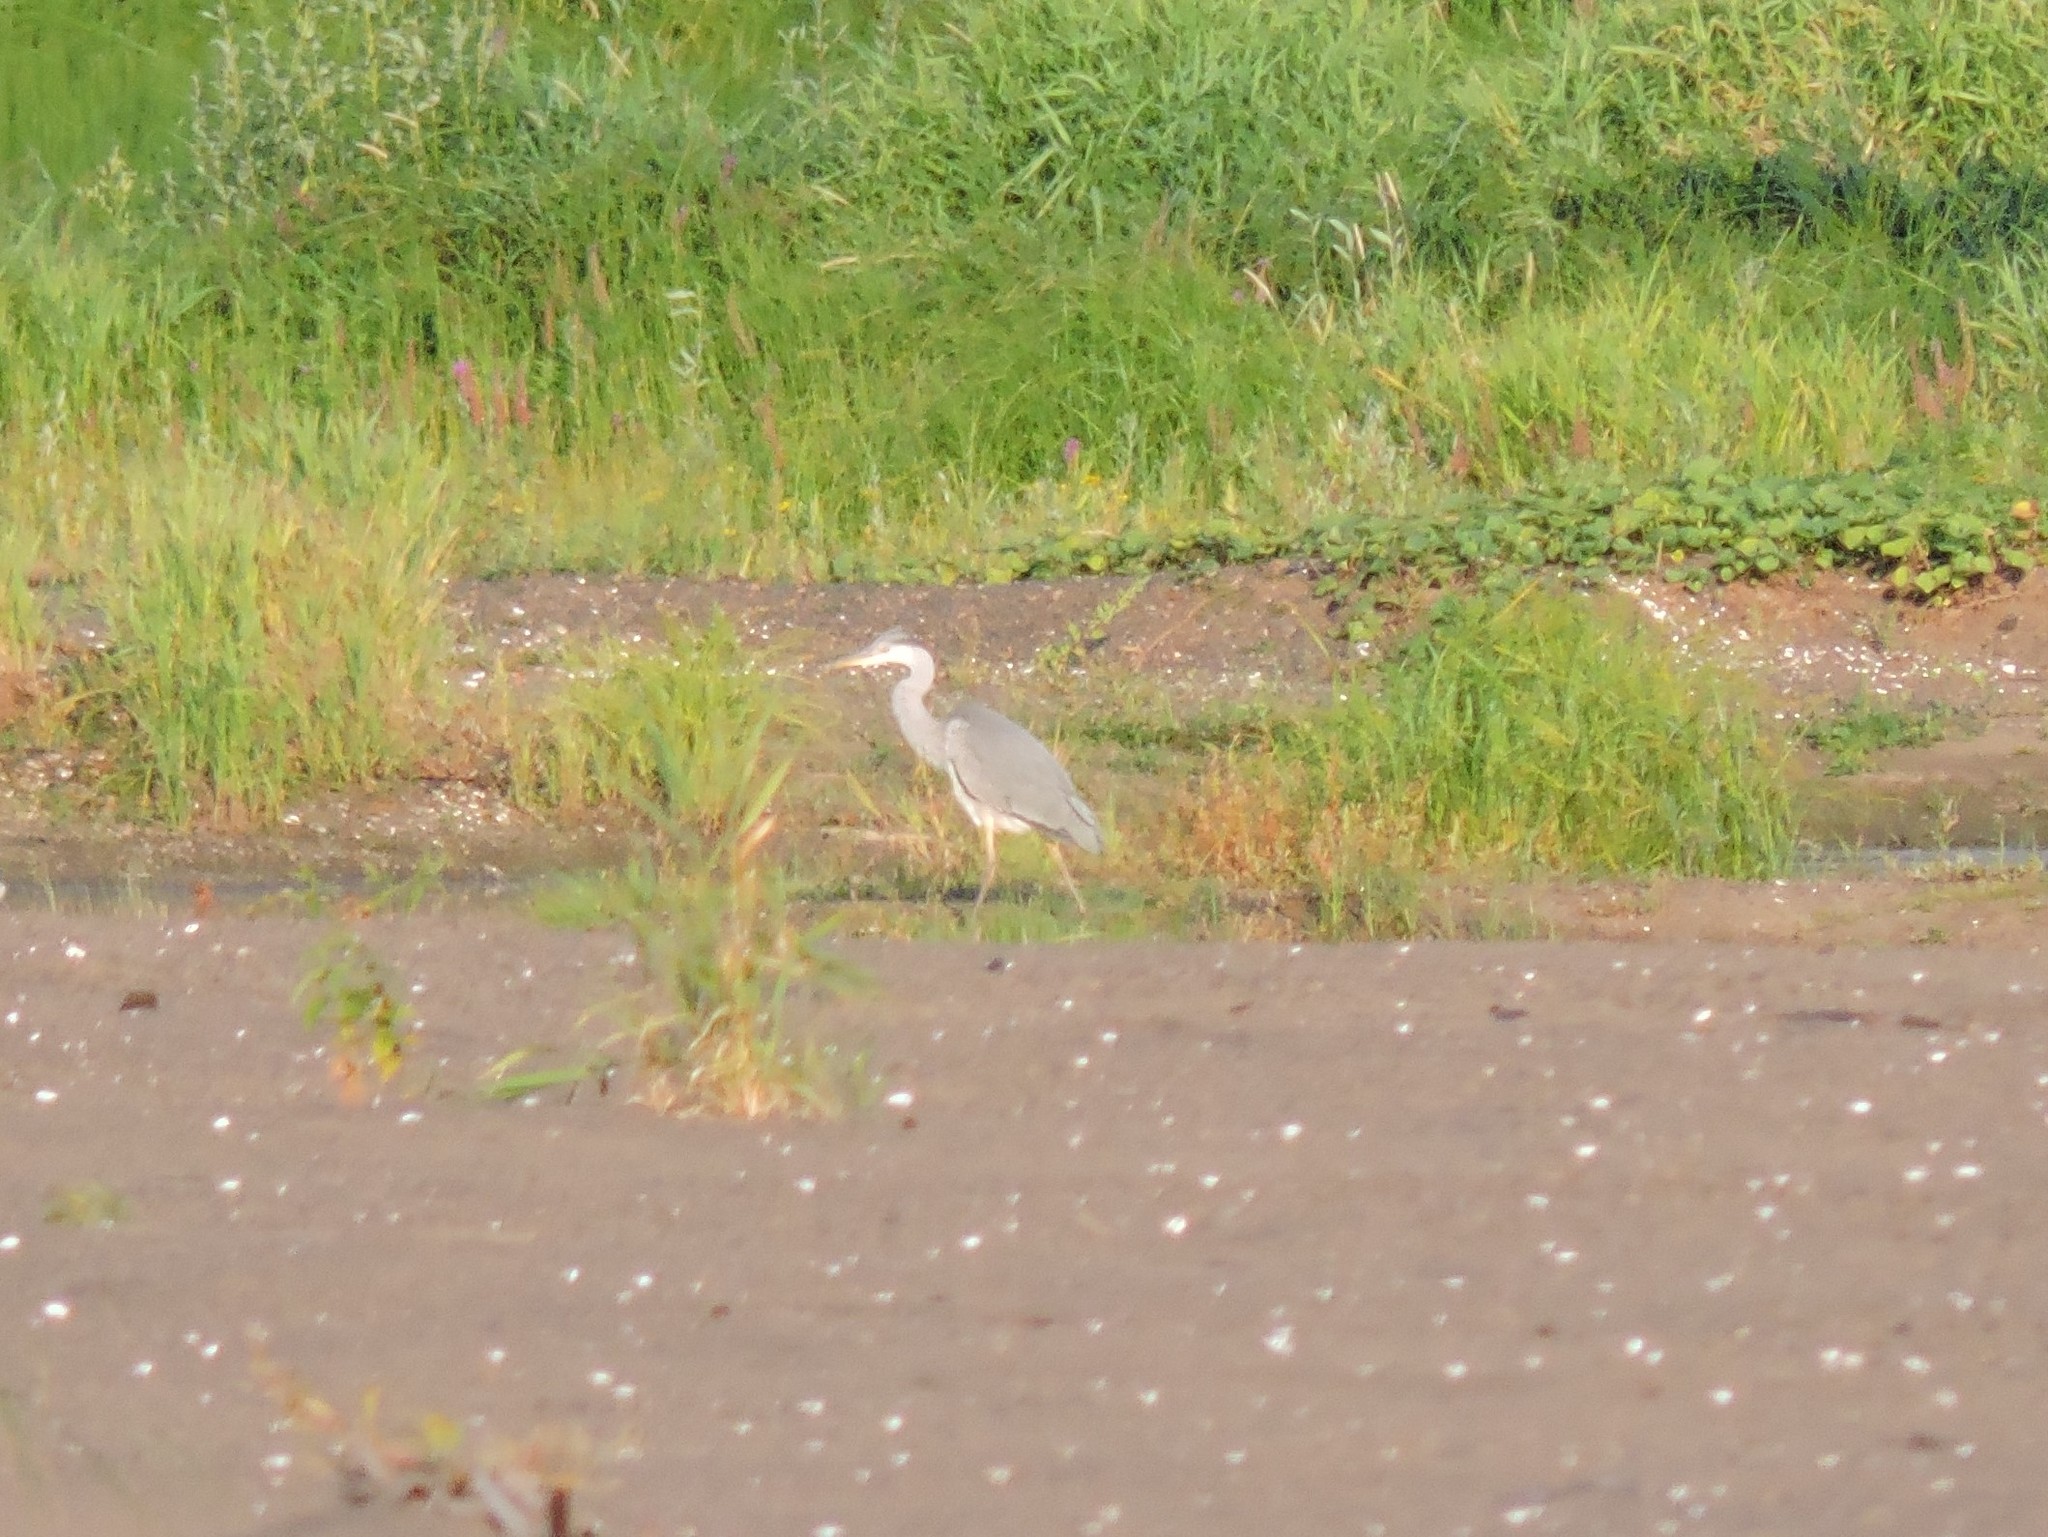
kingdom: Animalia
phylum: Chordata
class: Aves
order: Pelecaniformes
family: Ardeidae
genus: Ardea
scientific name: Ardea cinerea
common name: Grey heron
